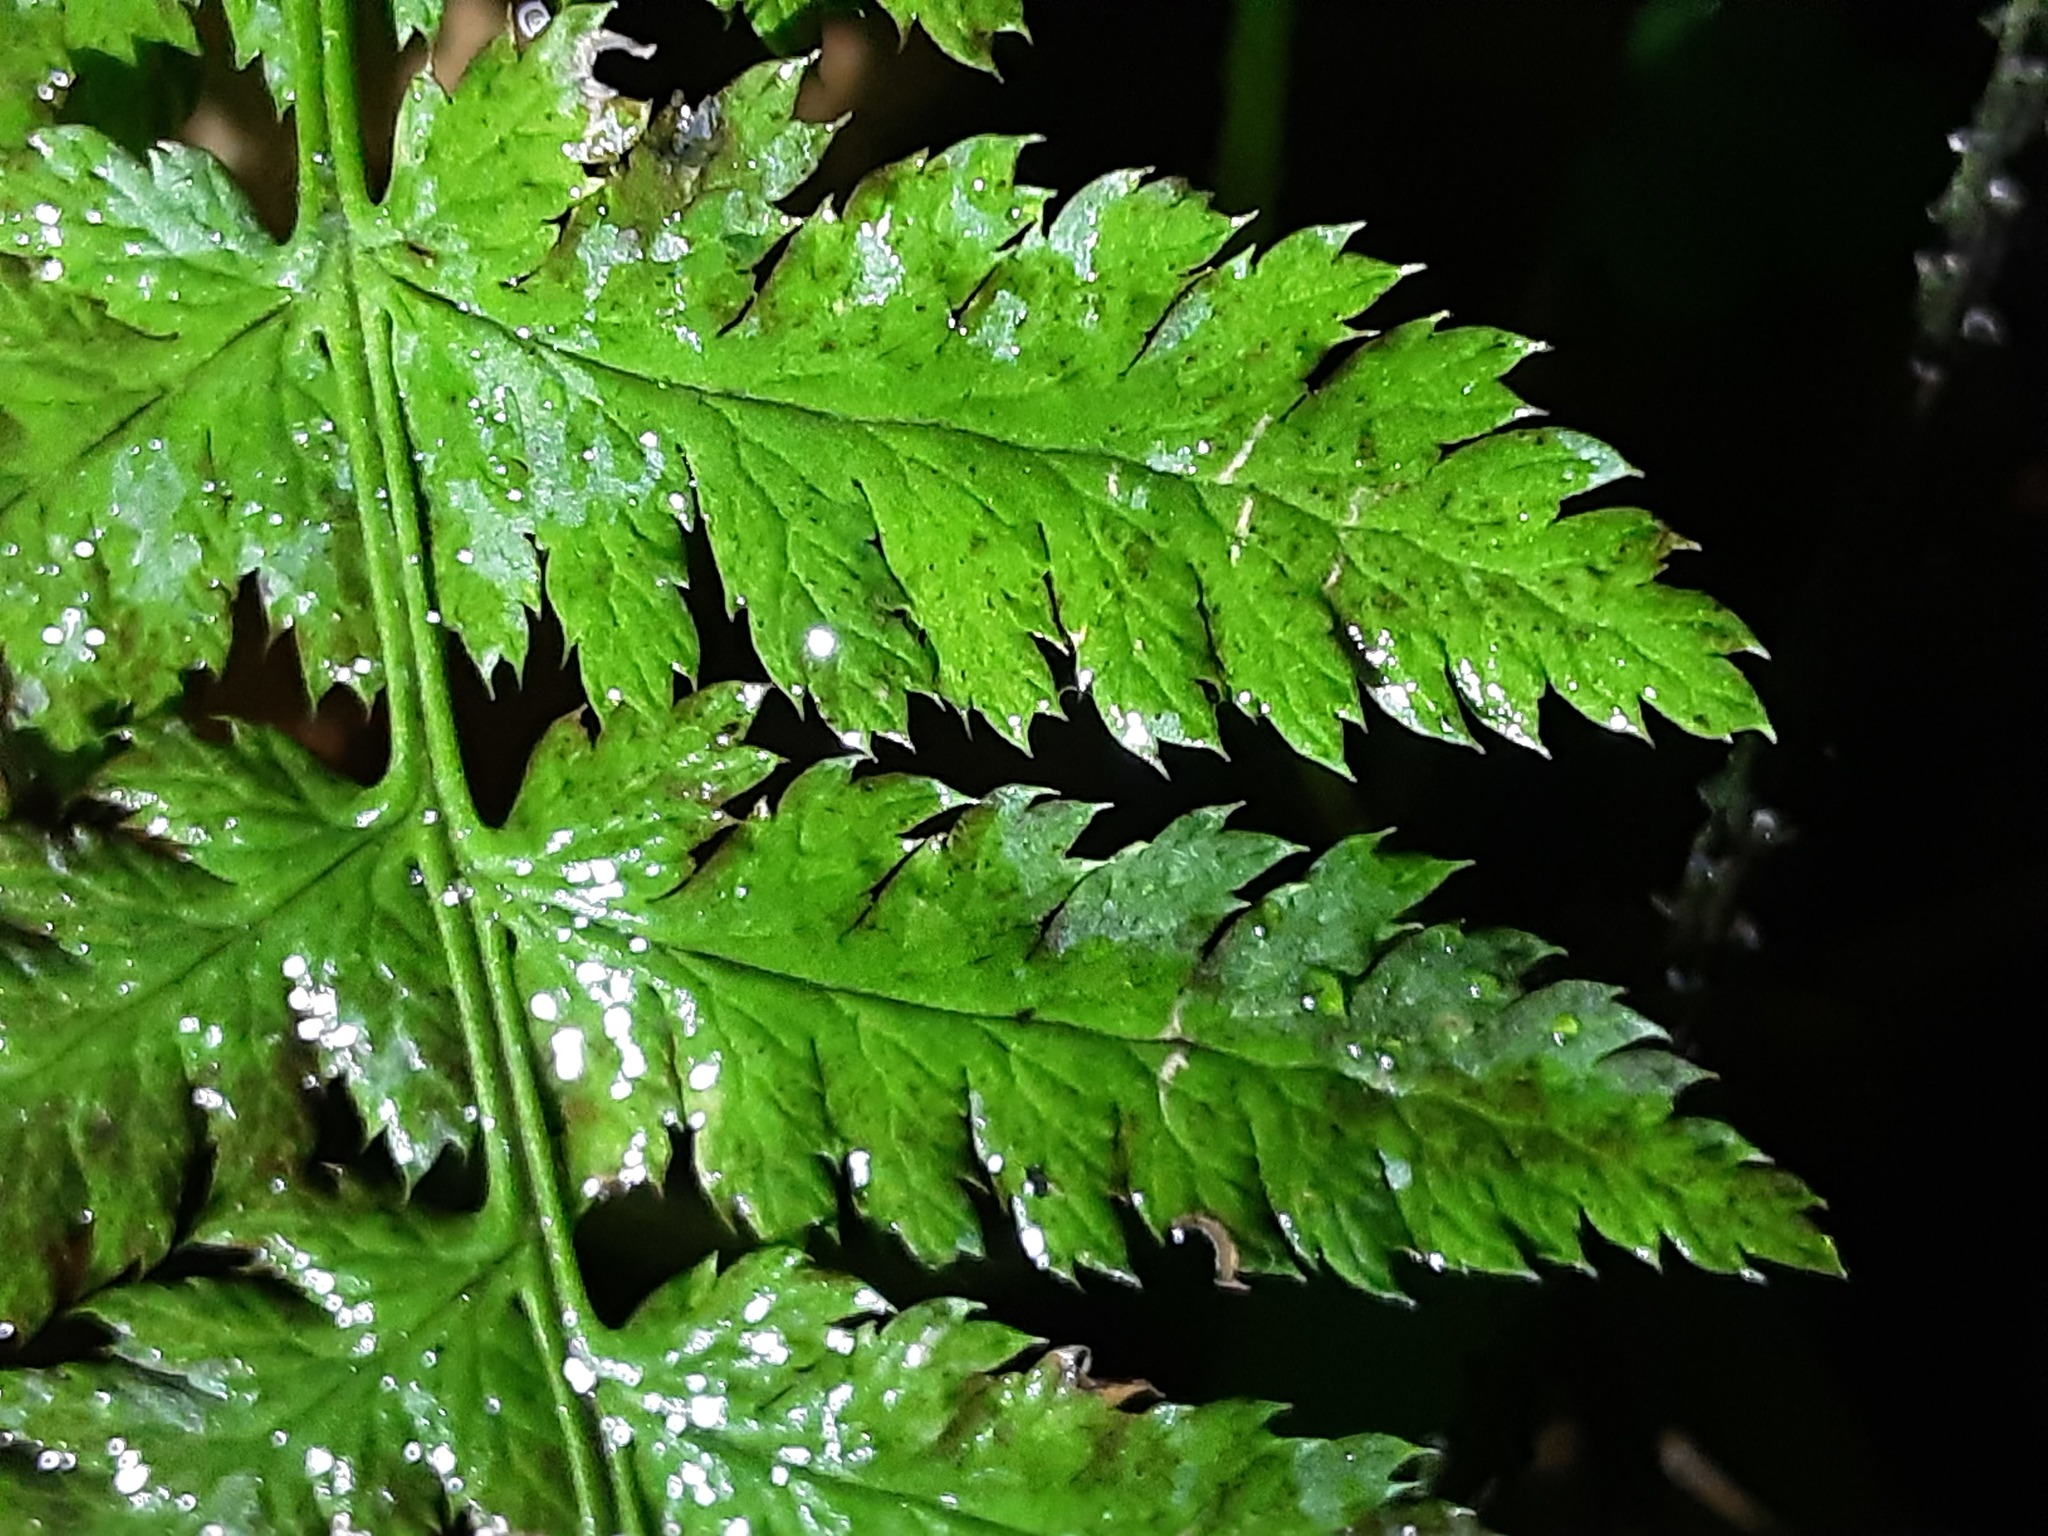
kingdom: Plantae
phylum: Tracheophyta
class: Polypodiopsida
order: Polypodiales
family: Dryopteridaceae
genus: Dryopteris
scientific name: Dryopteris carthusiana
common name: Narrow buckler-fern
